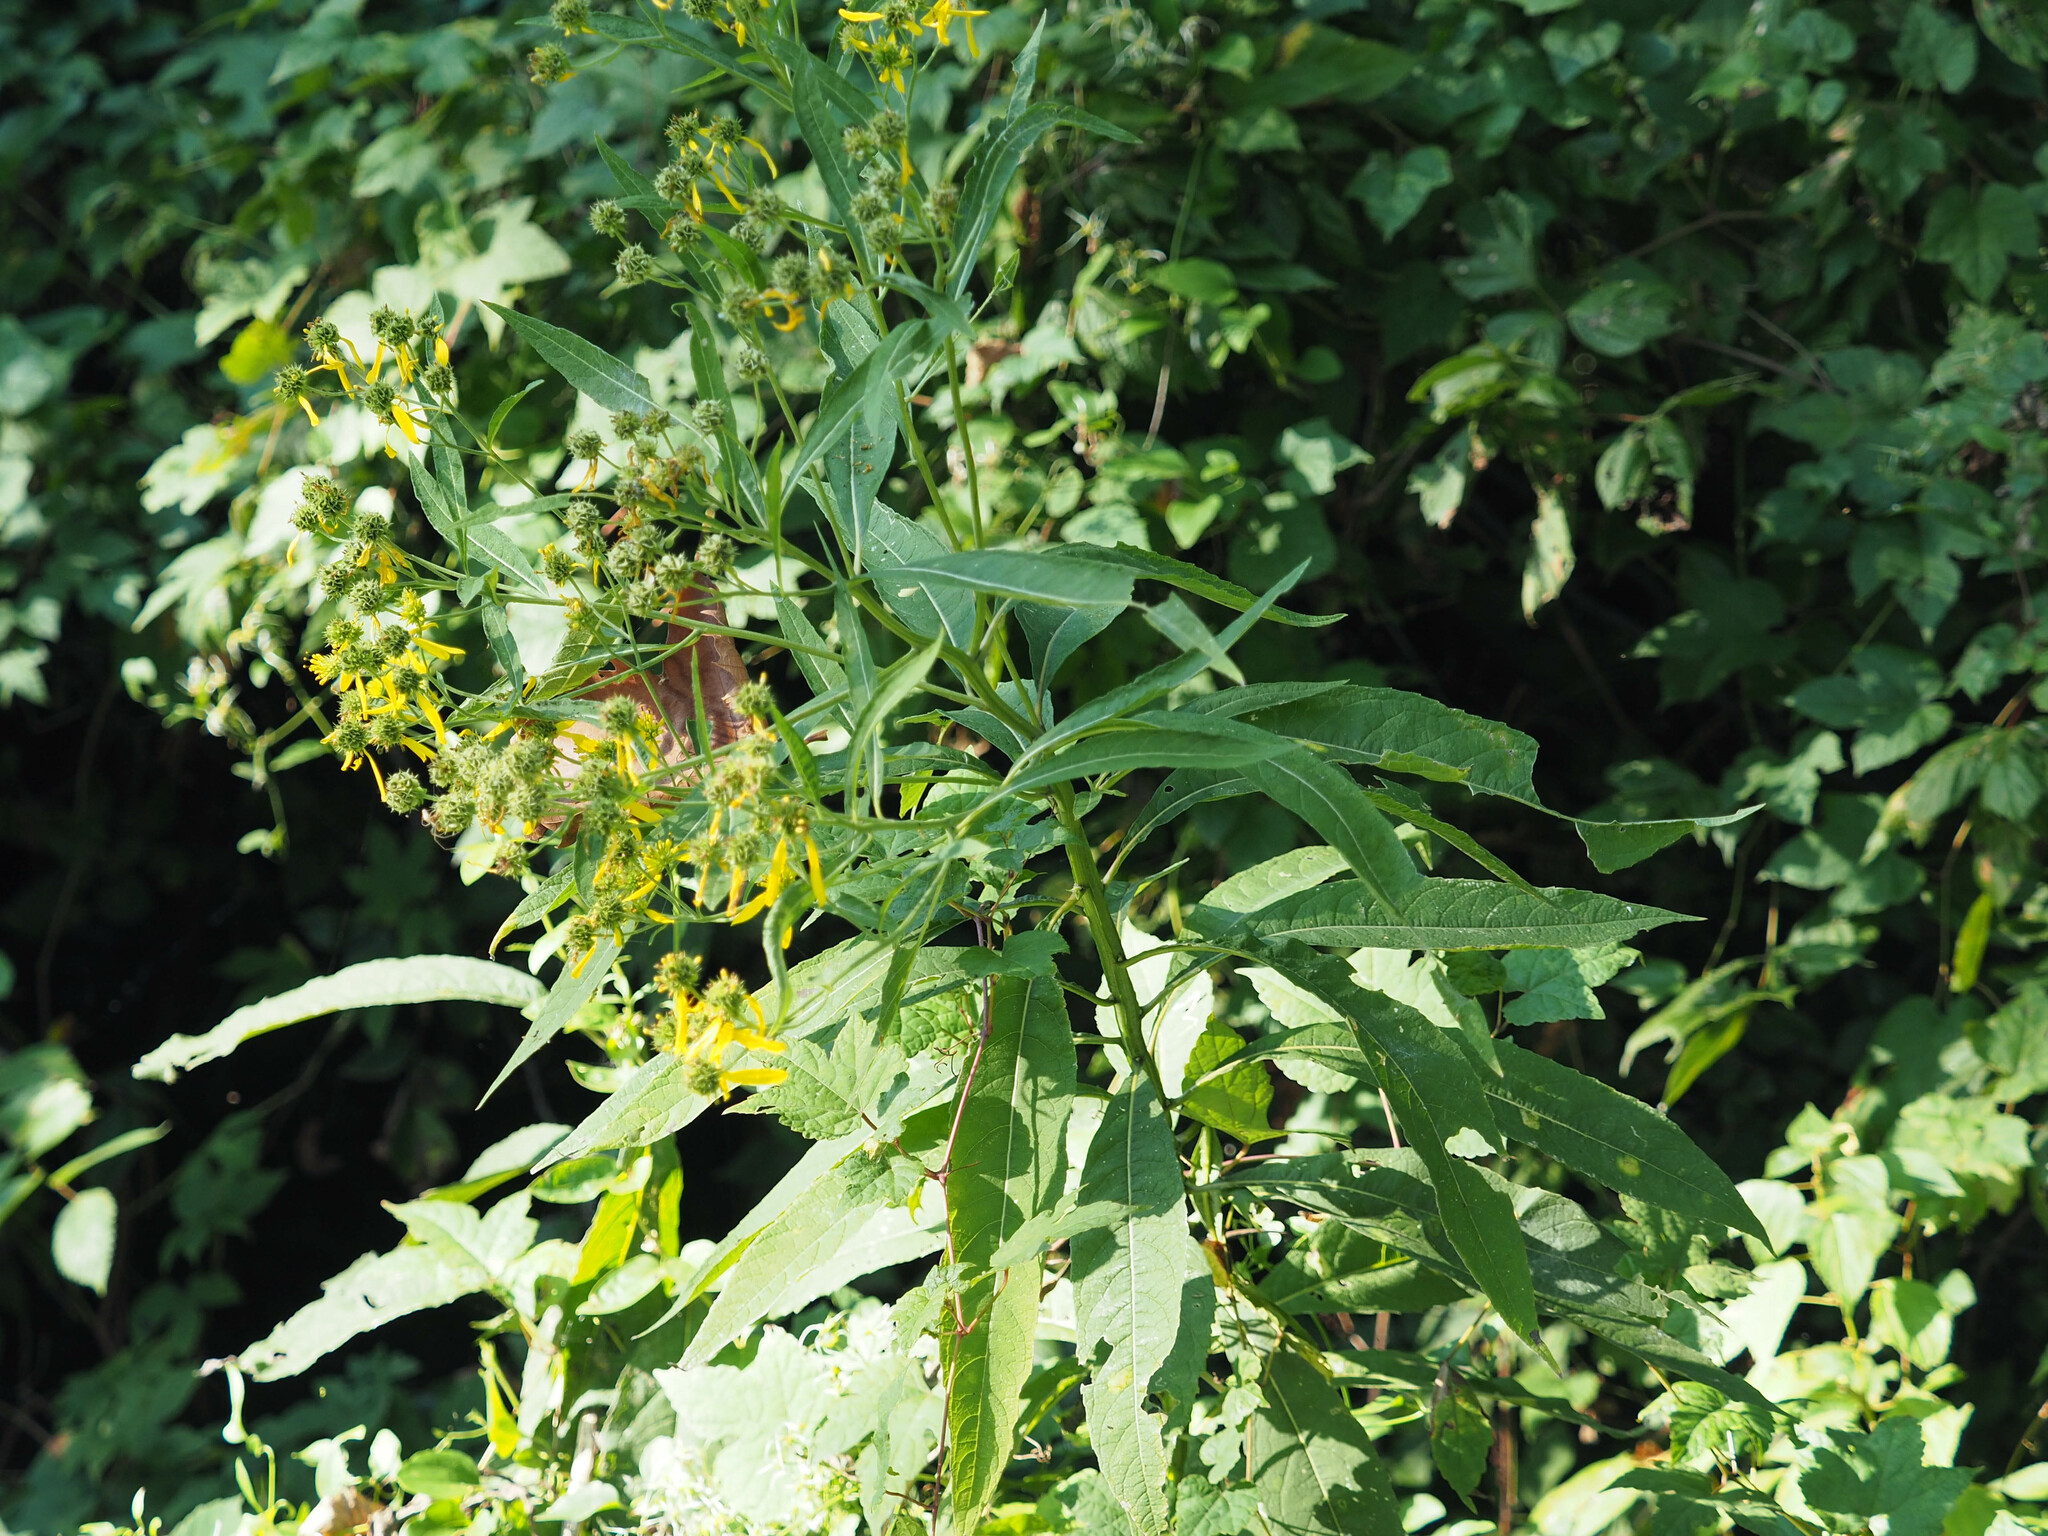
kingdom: Plantae
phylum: Tracheophyta
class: Magnoliopsida
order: Asterales
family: Asteraceae
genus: Verbesina
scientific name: Verbesina alternifolia
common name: Wingstem
